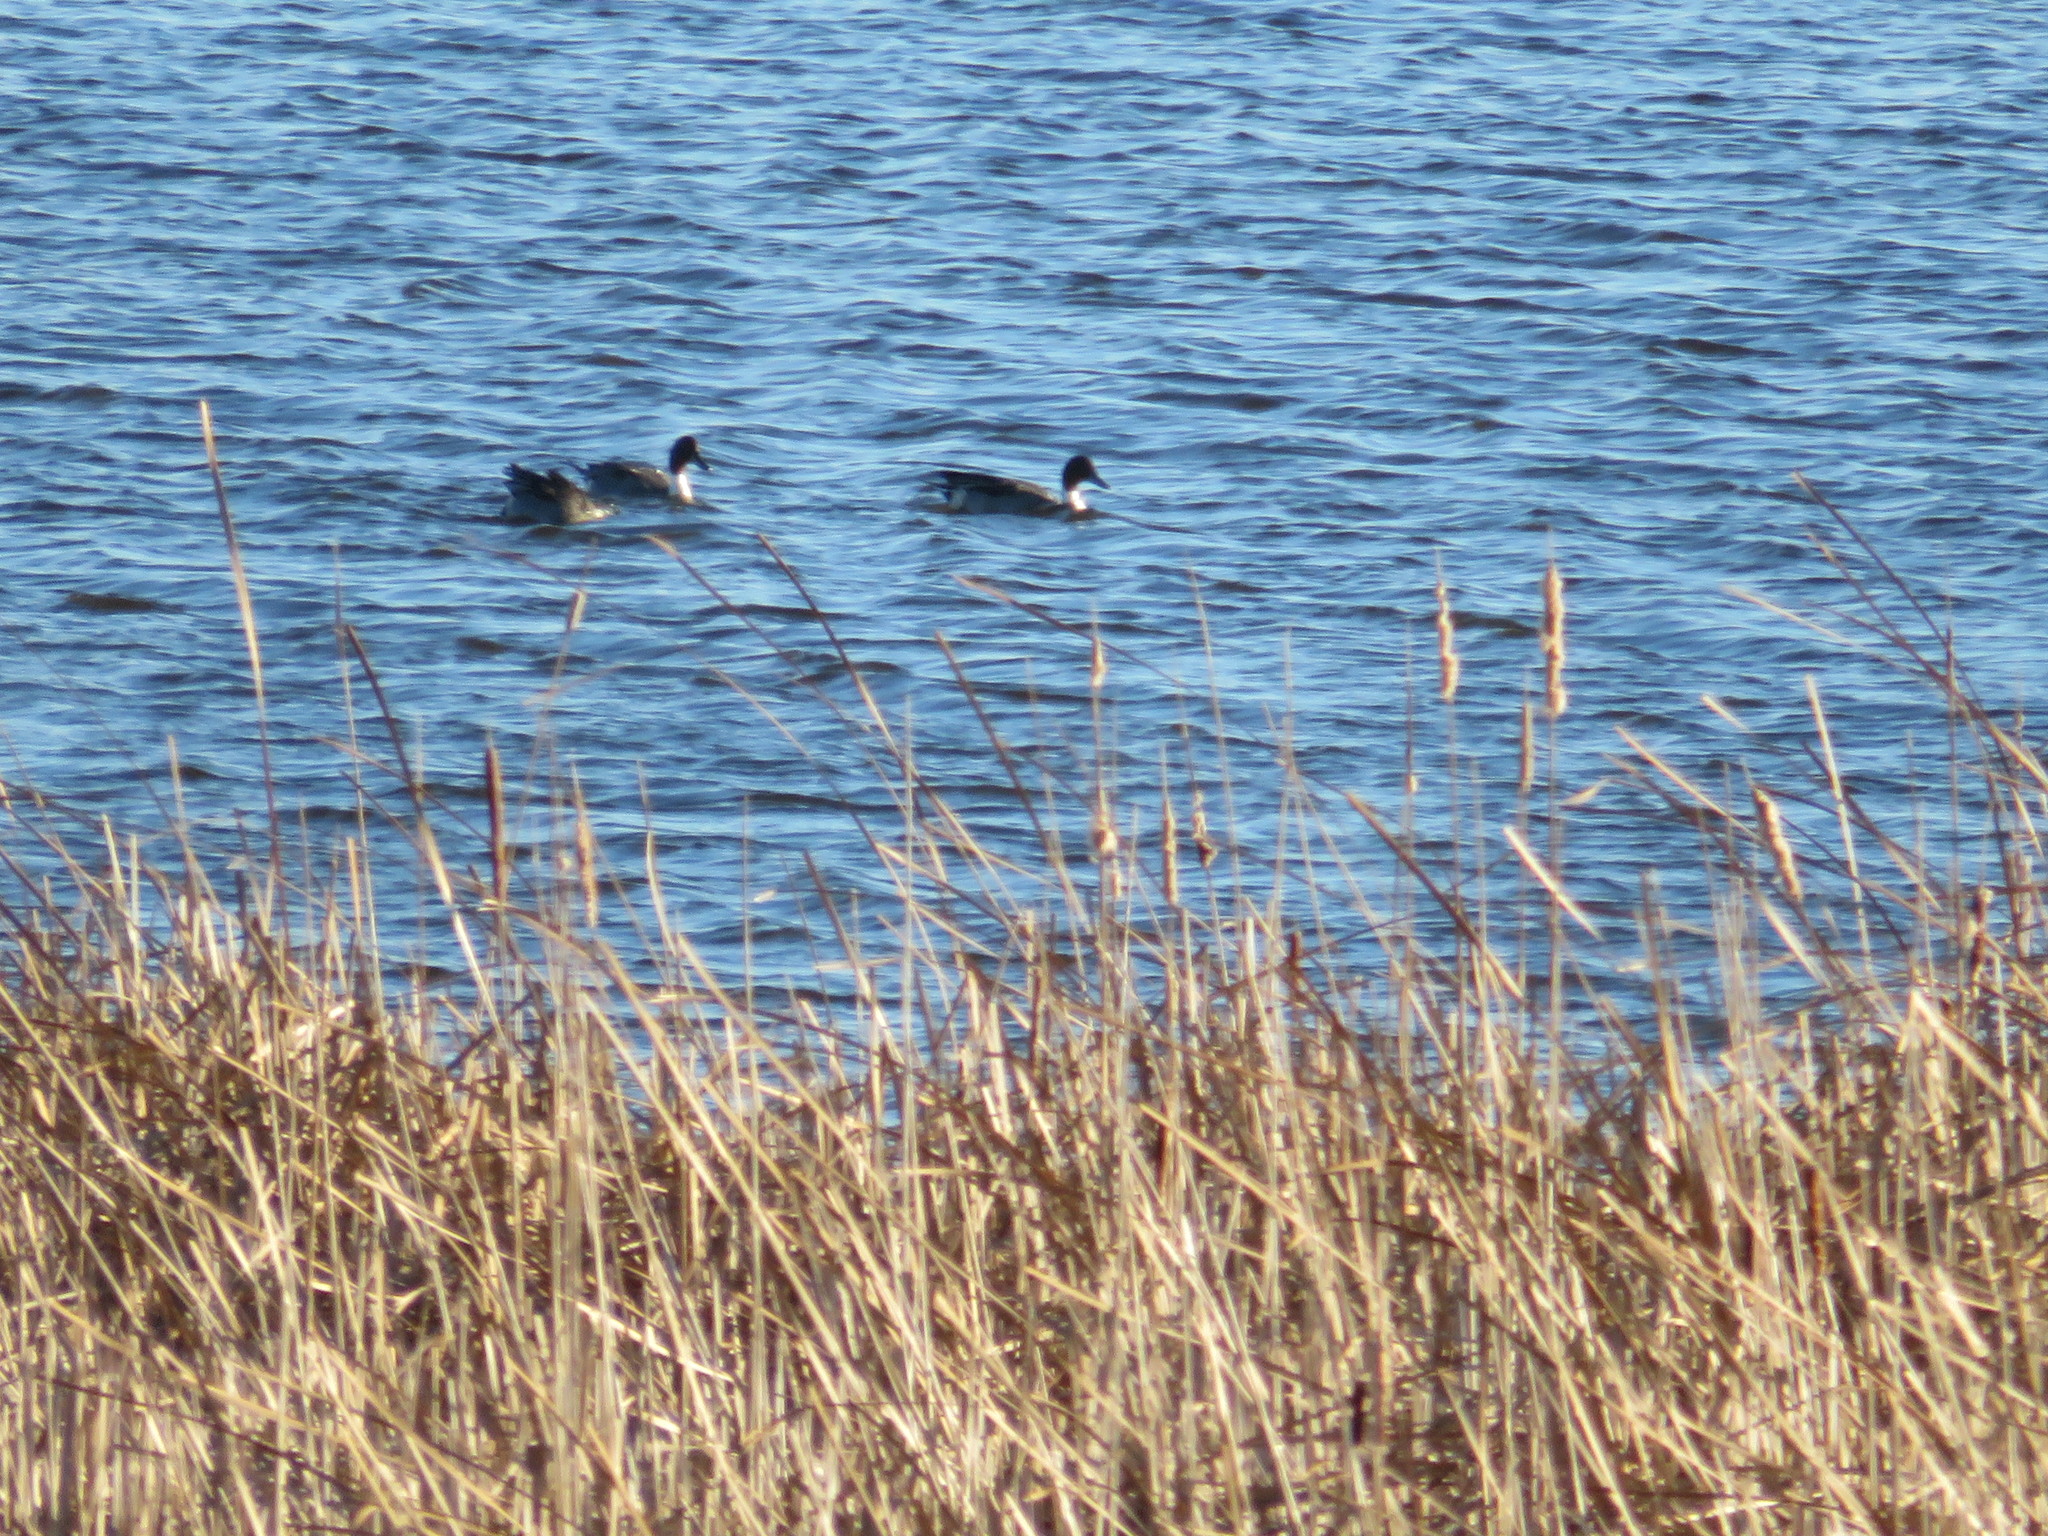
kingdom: Animalia
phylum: Chordata
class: Aves
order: Anseriformes
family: Anatidae
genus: Anas
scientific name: Anas acuta
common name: Northern pintail
